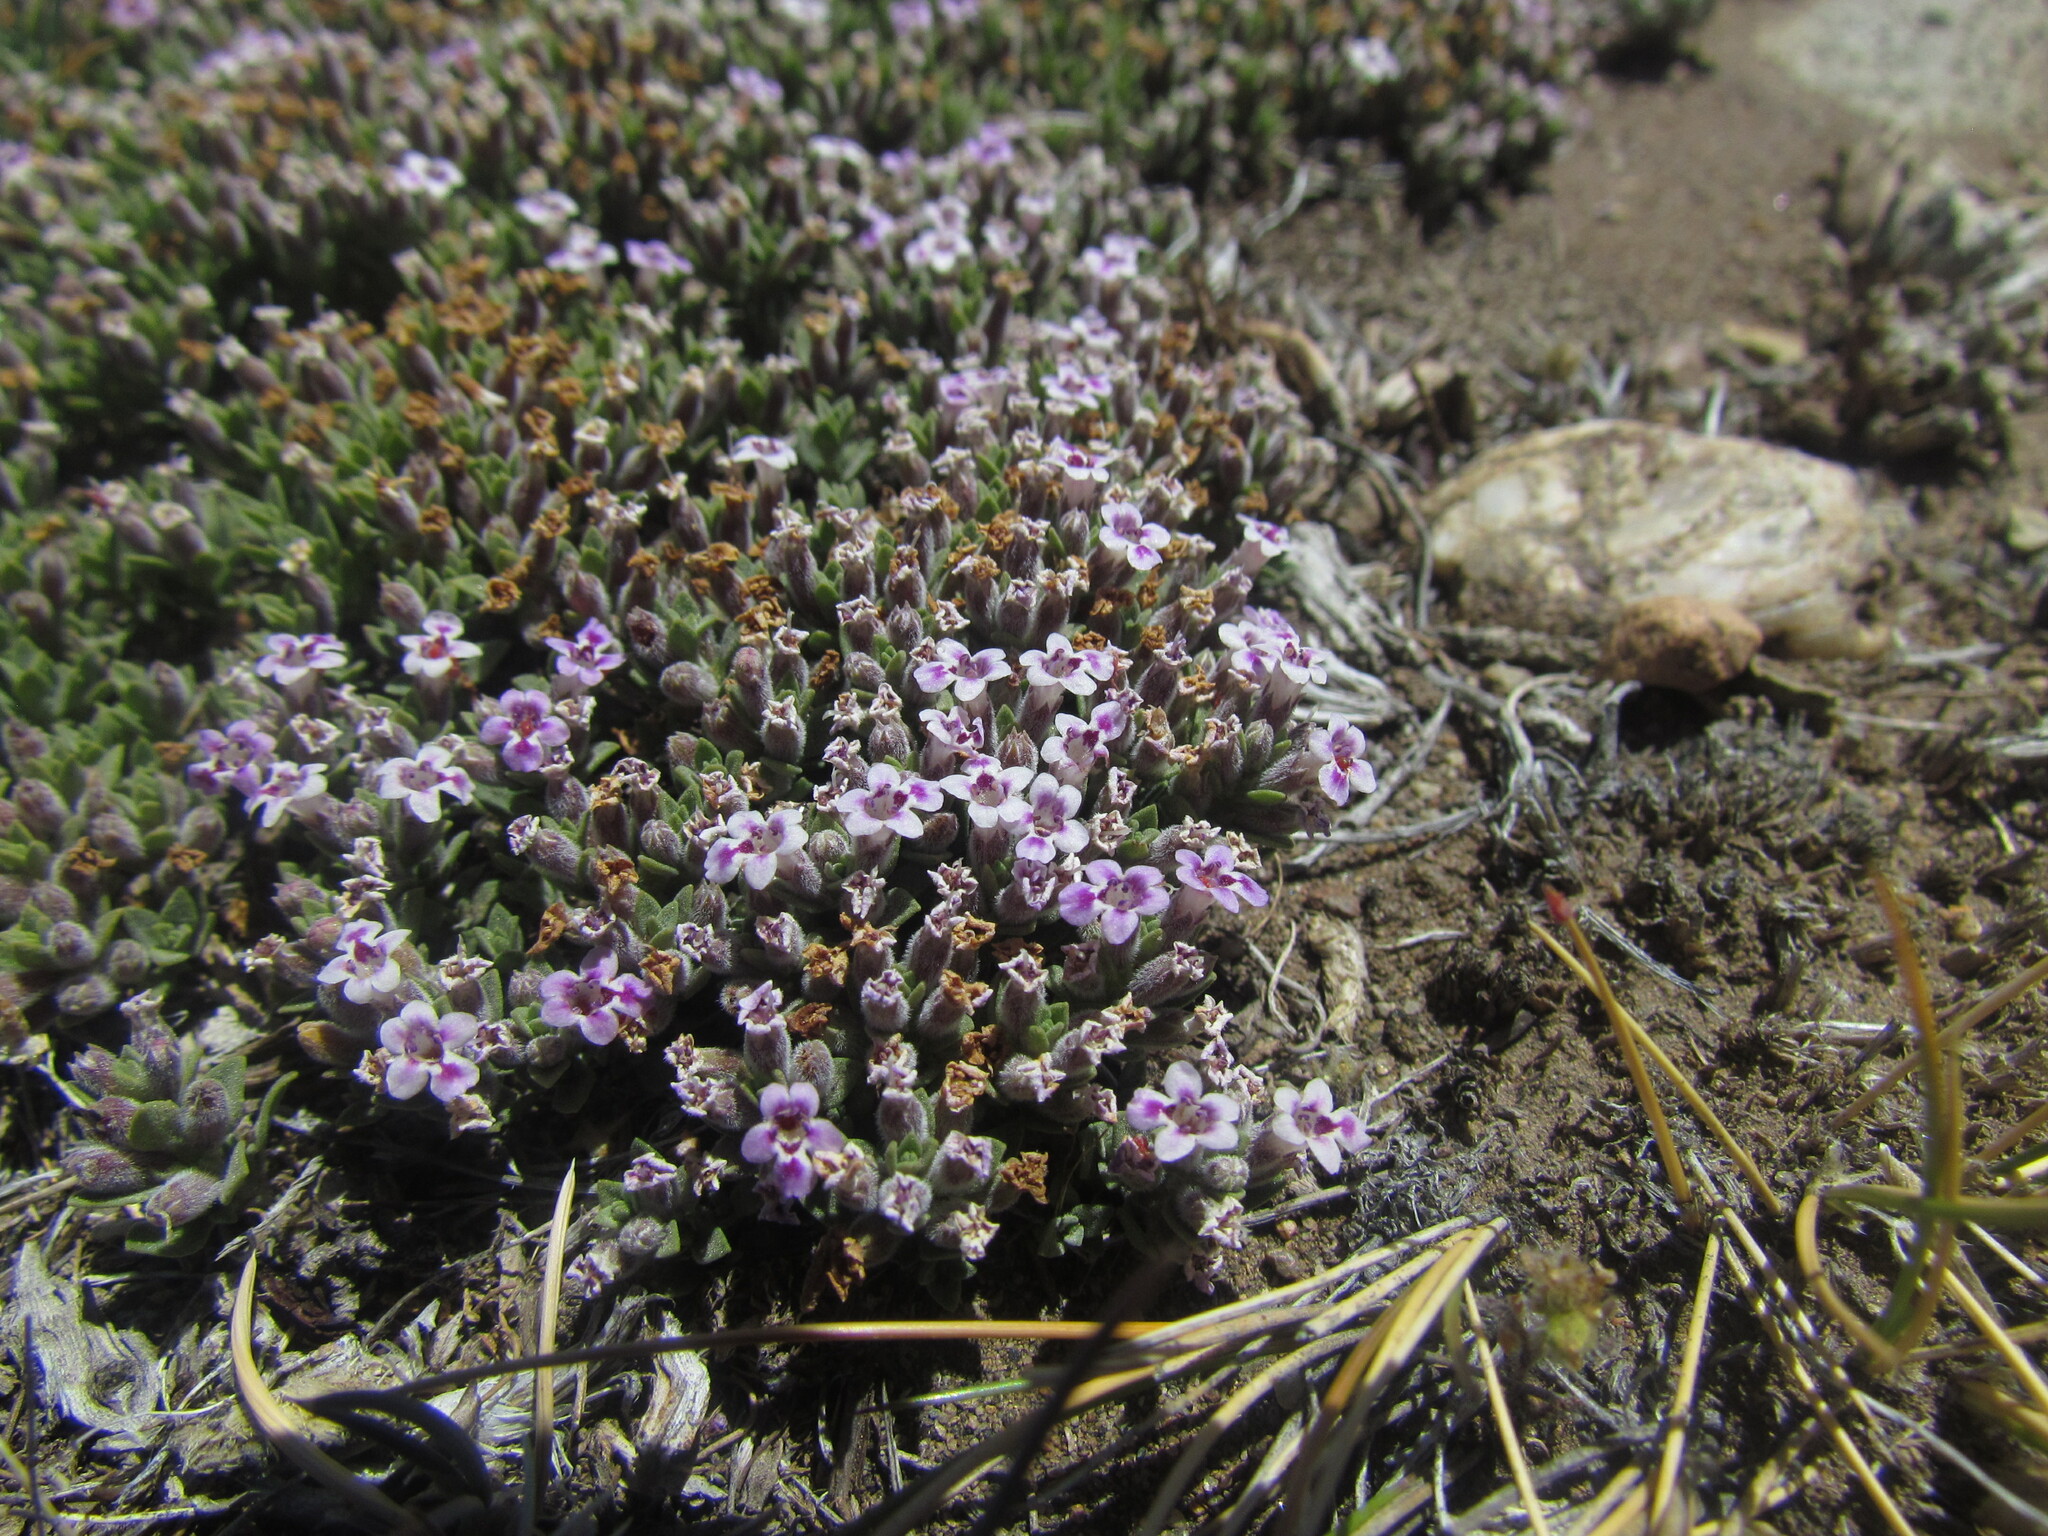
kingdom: Plantae
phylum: Tracheophyta
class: Magnoliopsida
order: Lamiales
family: Lamiaceae
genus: Clinopodium
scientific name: Clinopodium darwinii
